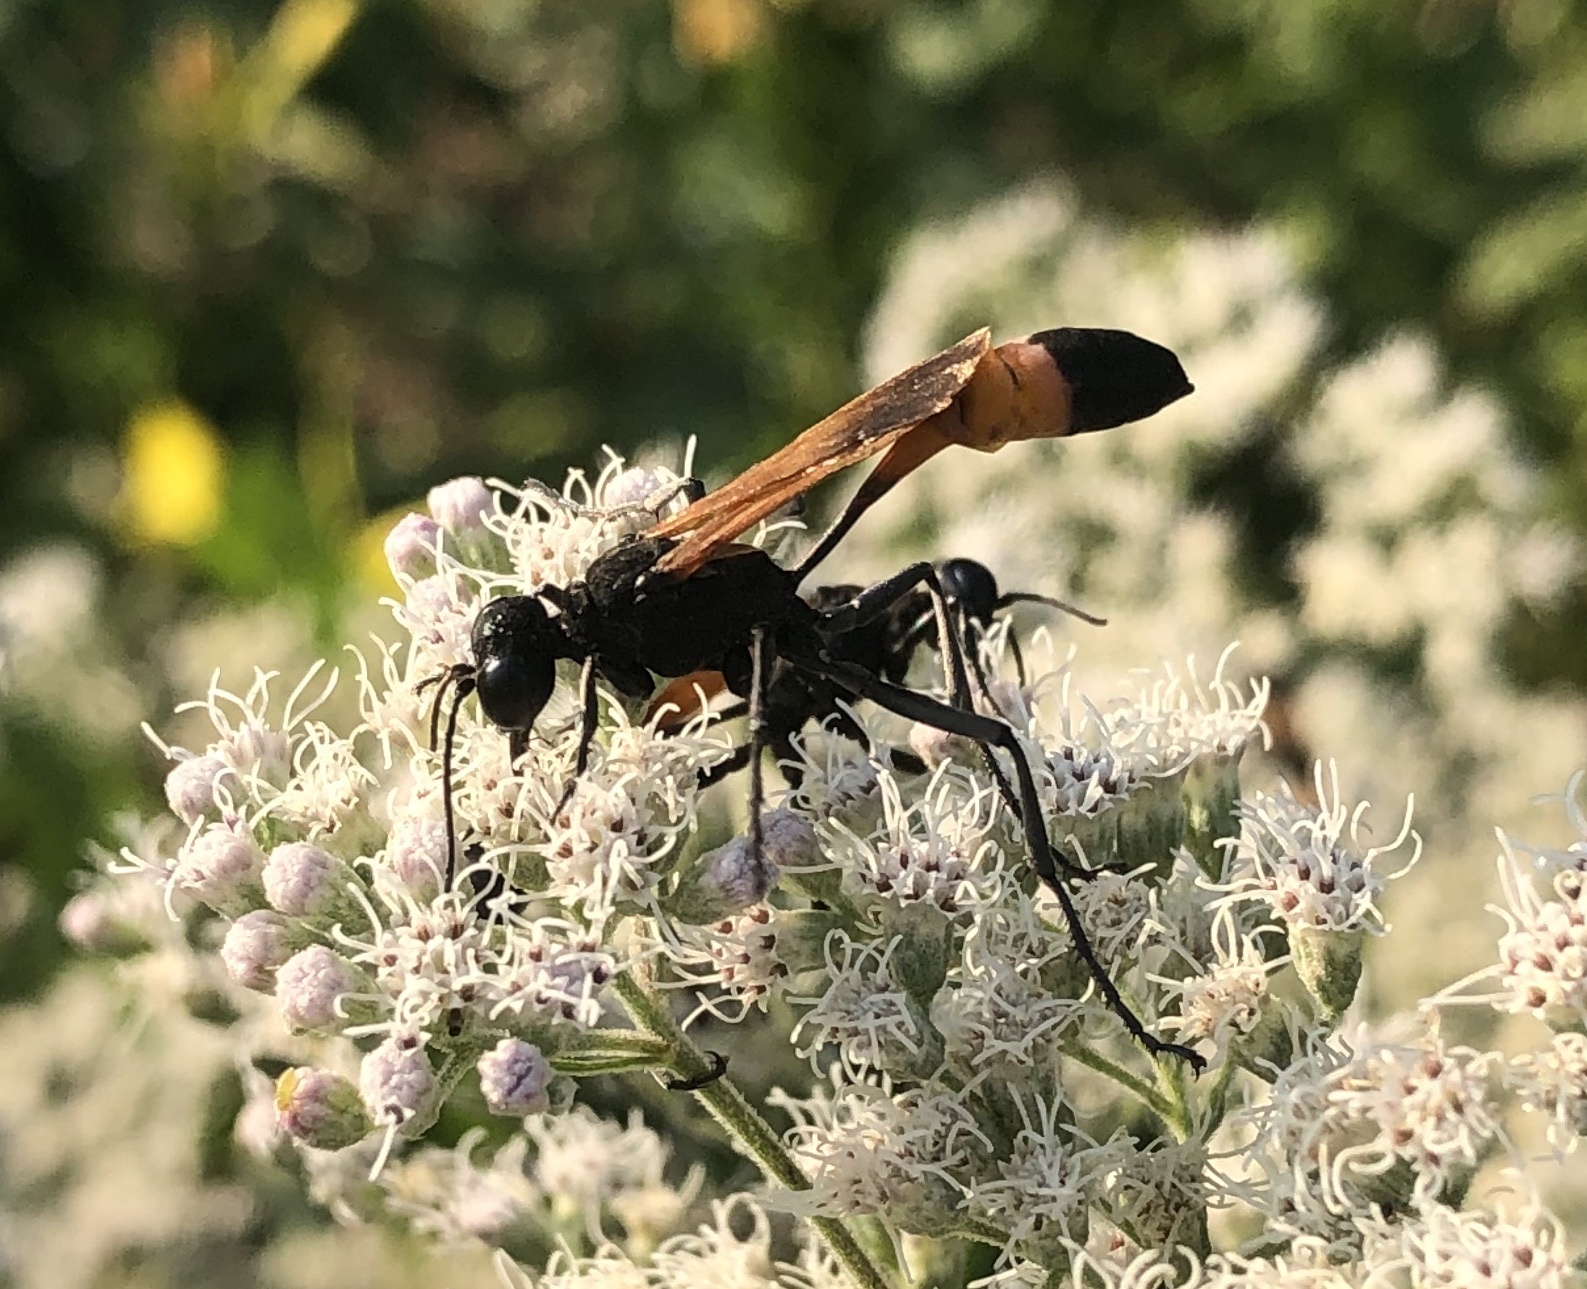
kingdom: Animalia
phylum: Arthropoda
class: Insecta
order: Hymenoptera
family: Sphecidae
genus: Ammophila
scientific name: Ammophila pictipennis
